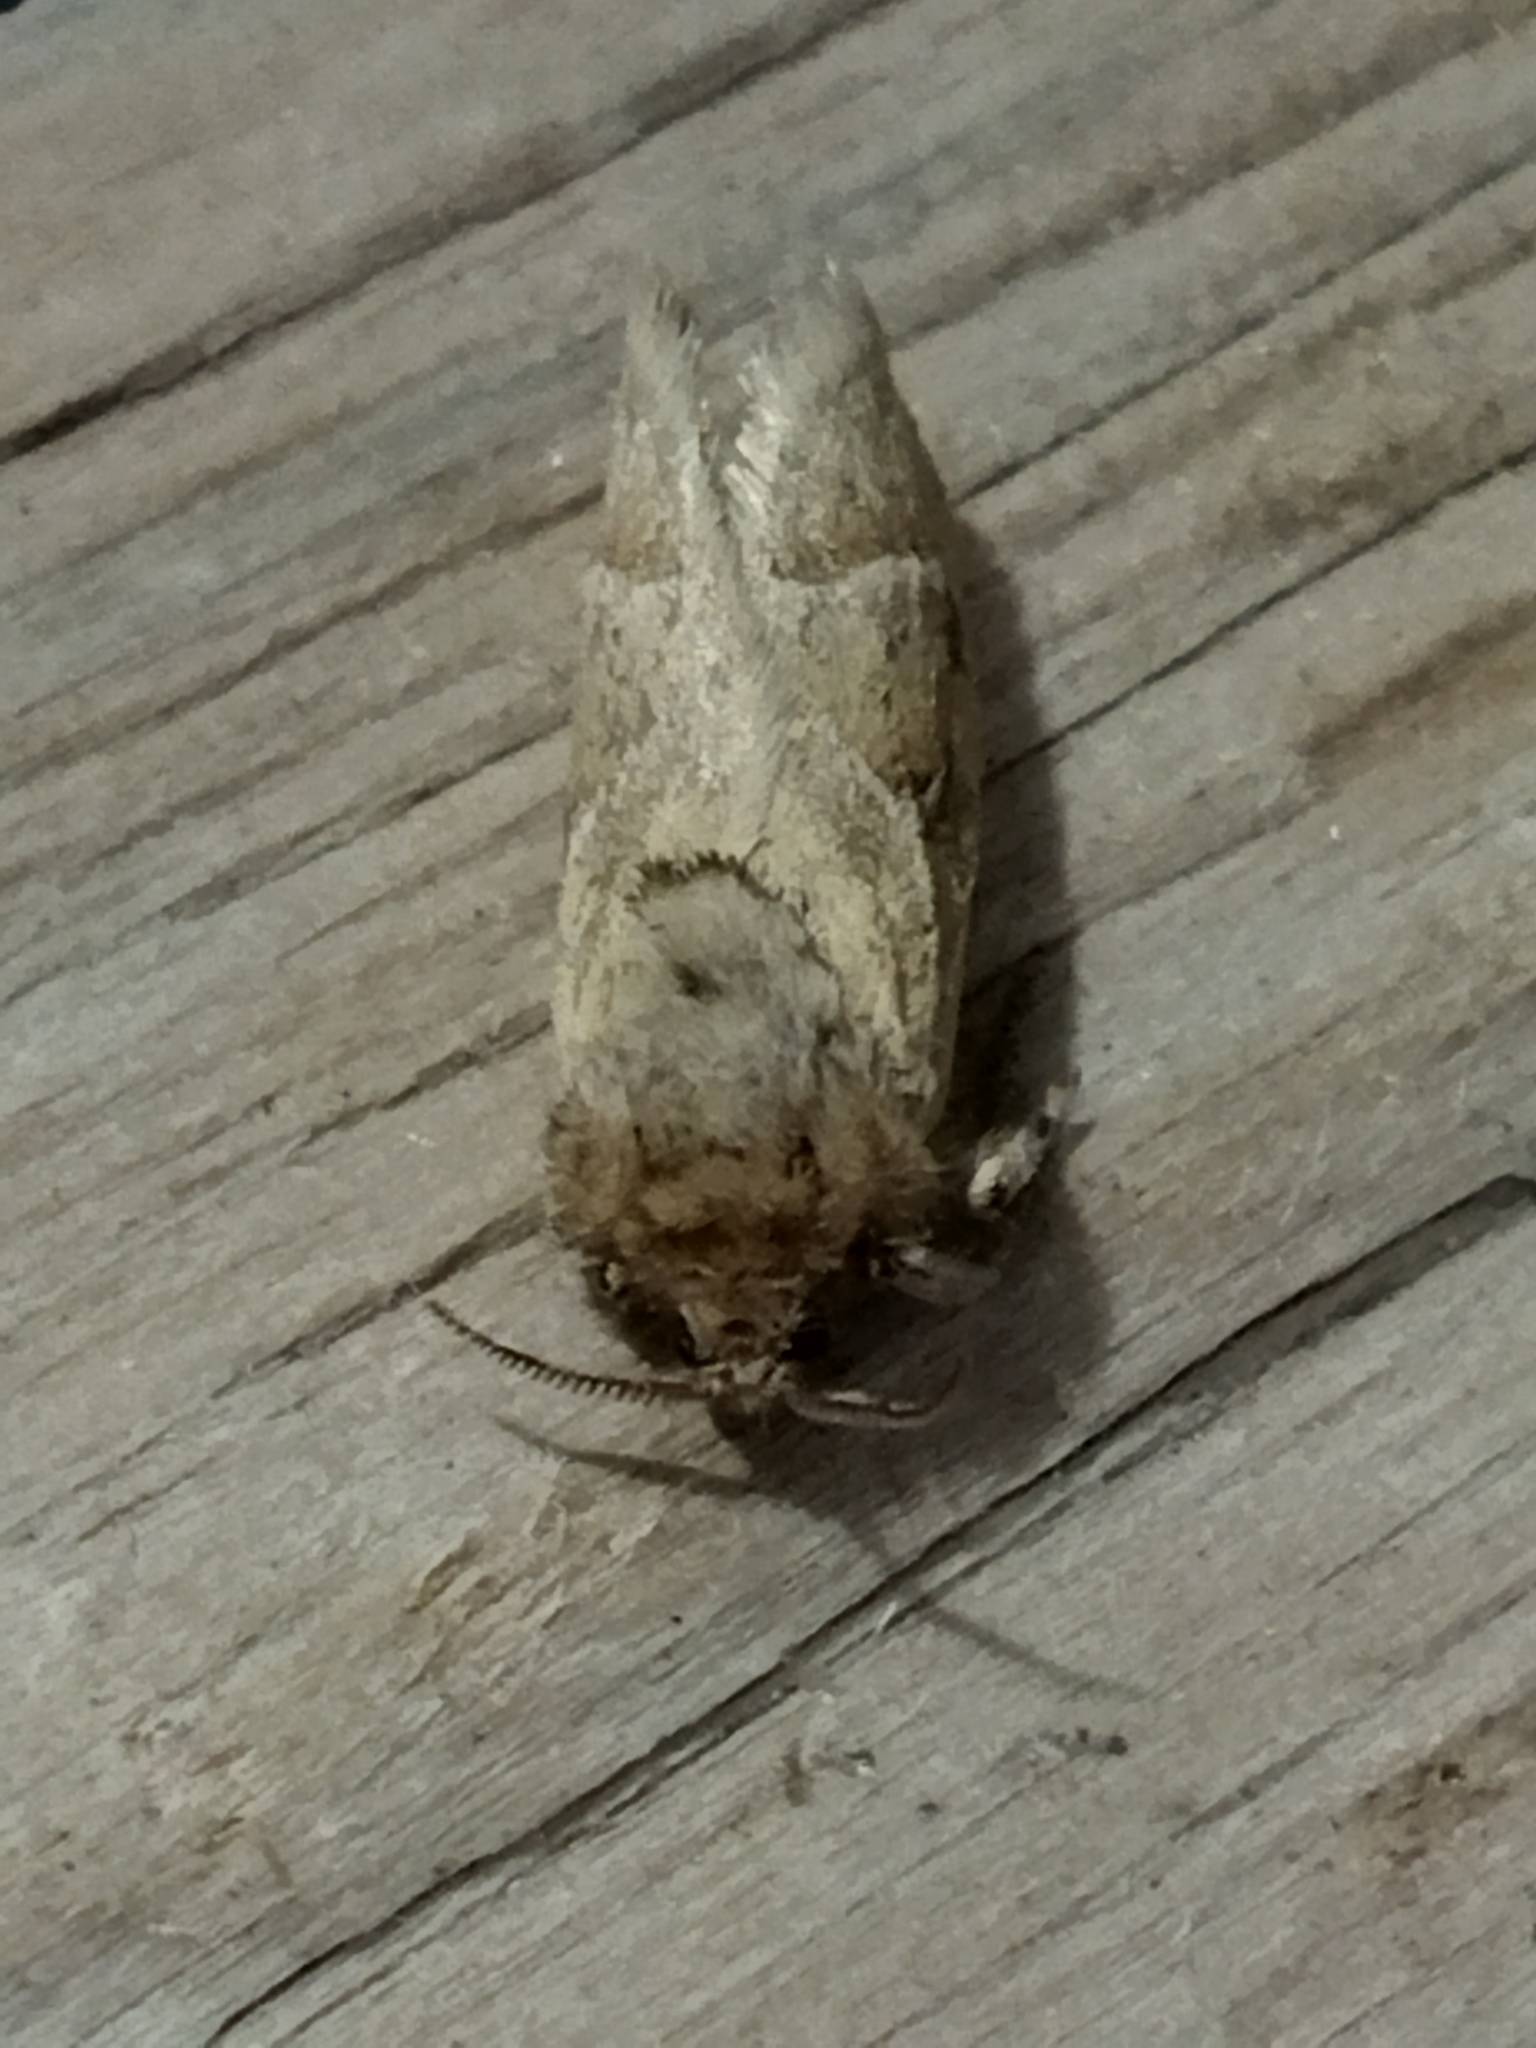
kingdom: Animalia
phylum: Arthropoda
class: Insecta
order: Lepidoptera
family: Hepialidae
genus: Triodia
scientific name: Triodia amasinus
